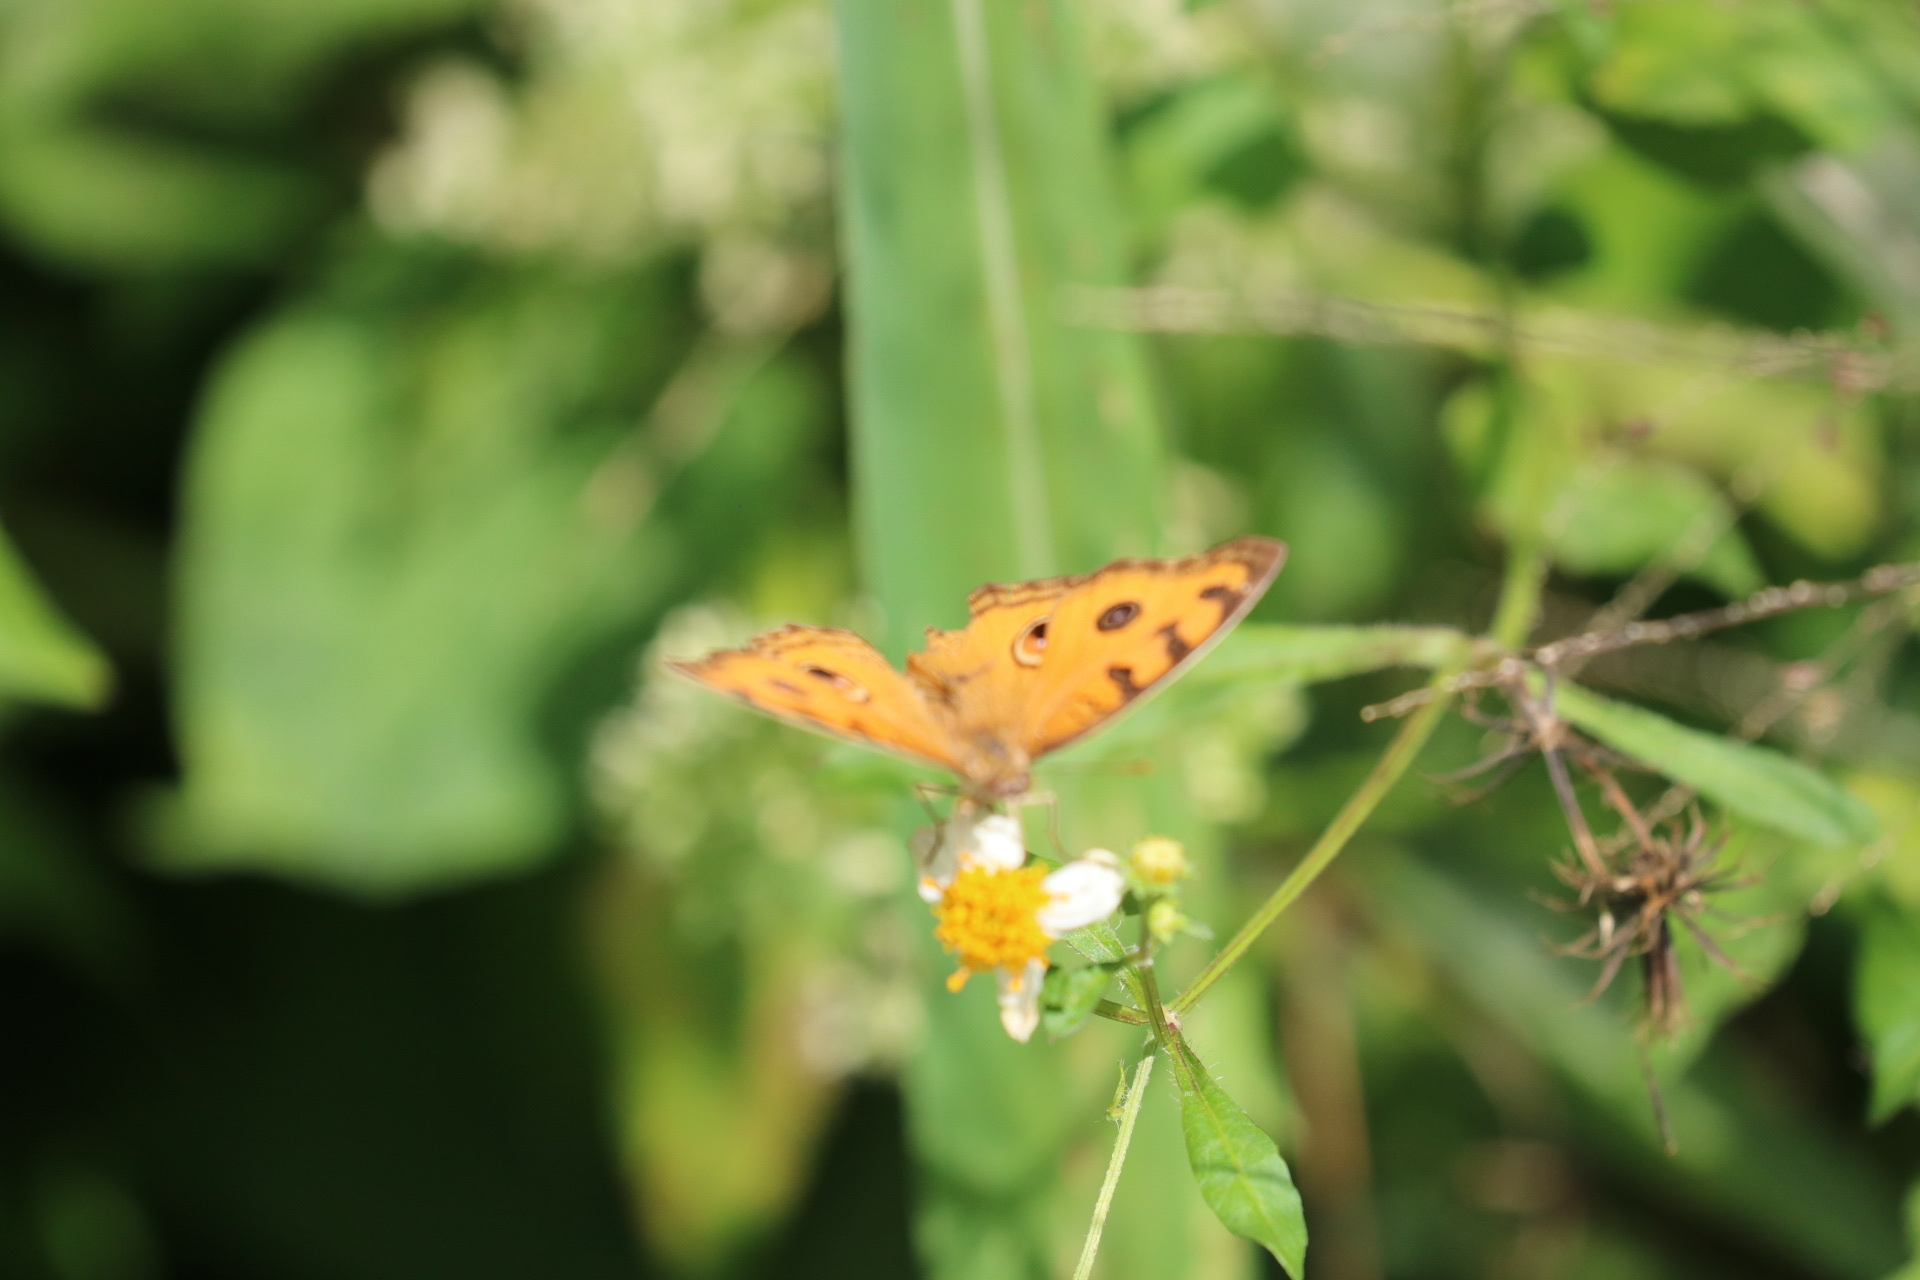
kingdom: Animalia
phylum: Arthropoda
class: Insecta
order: Lepidoptera
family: Nymphalidae
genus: Junonia
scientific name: Junonia almana
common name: Peacock pansy
